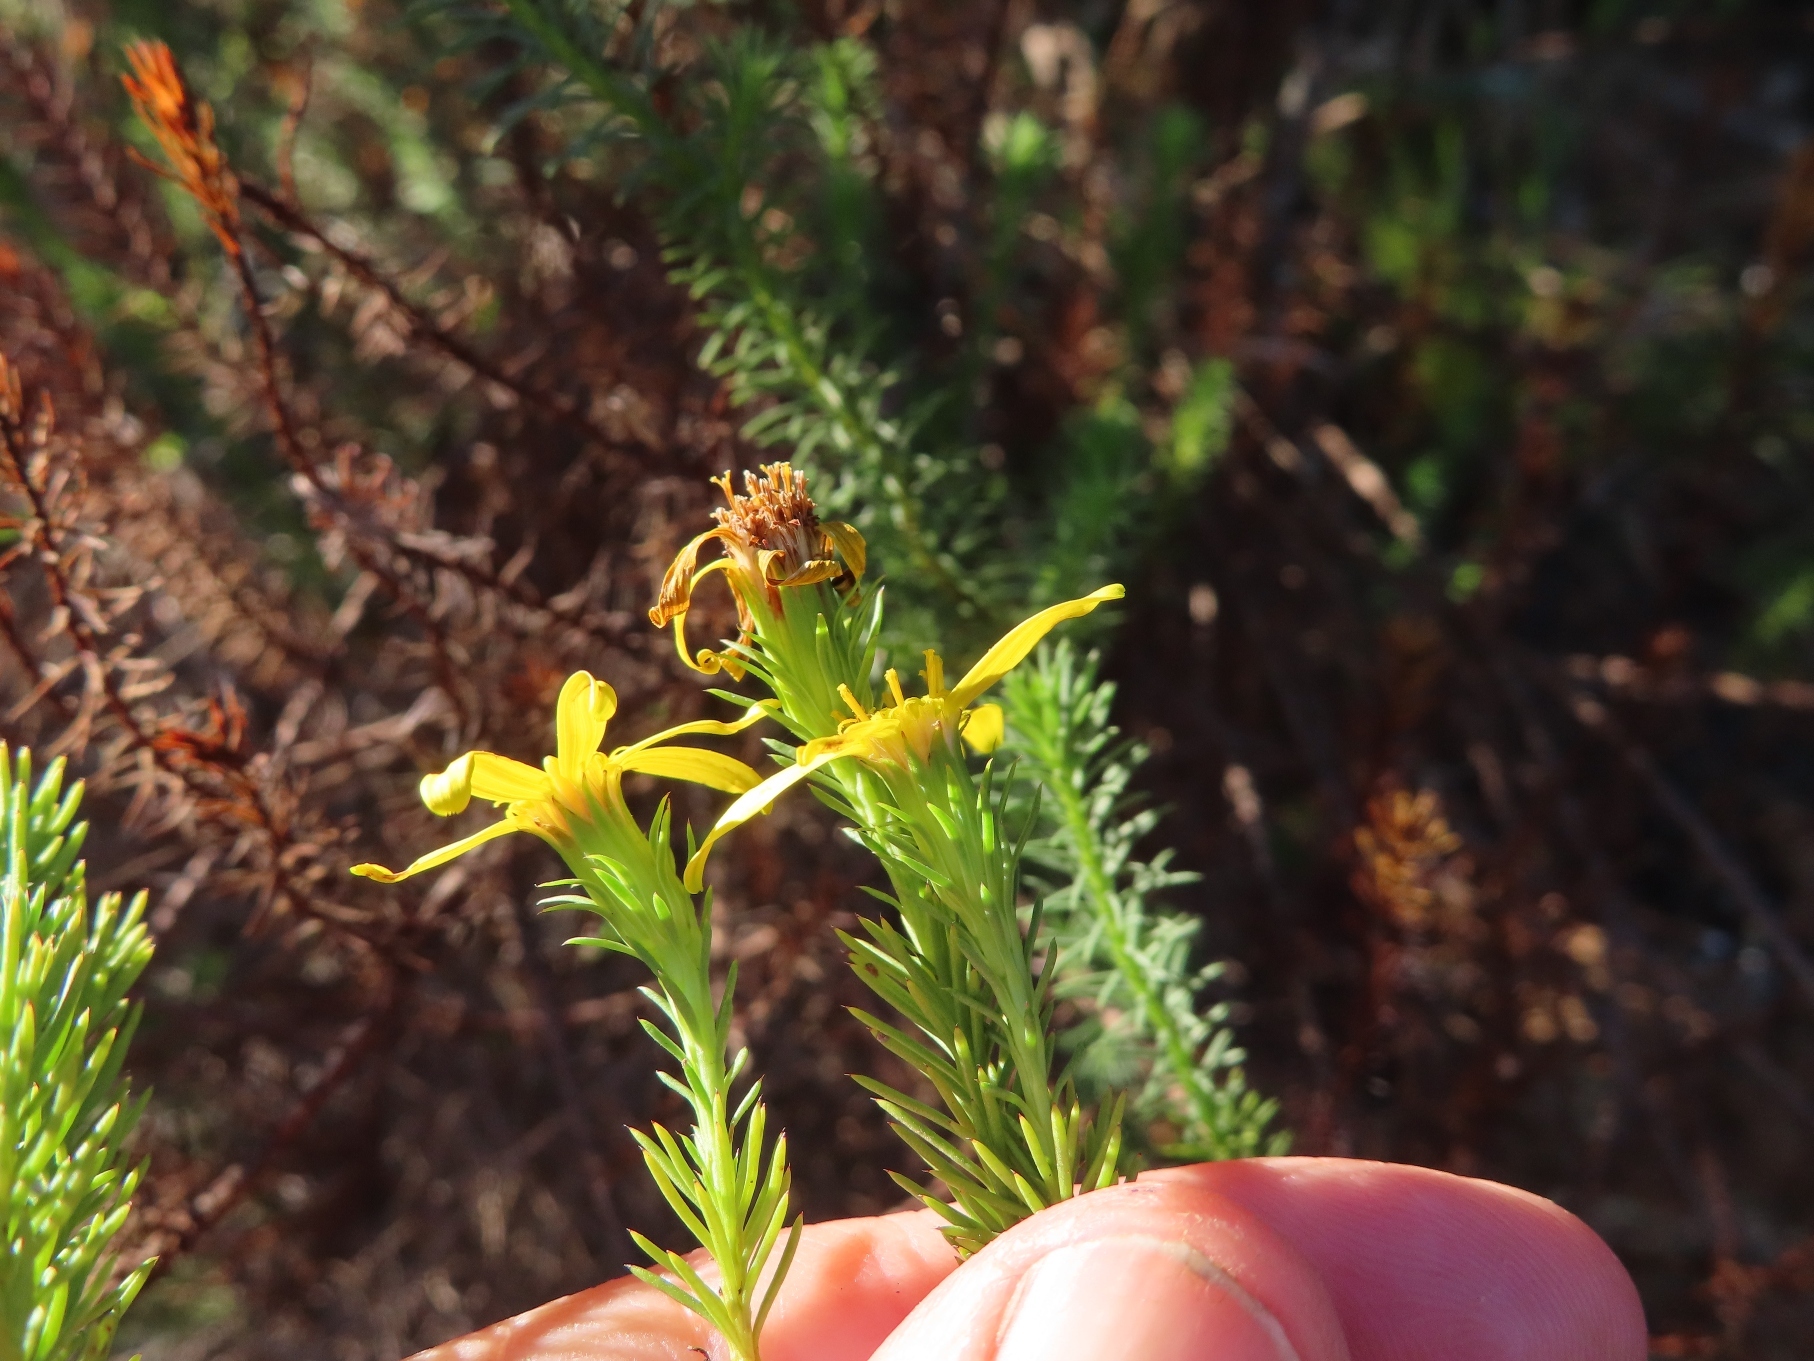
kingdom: Plantae
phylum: Tracheophyta
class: Magnoliopsida
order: Asterales
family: Asteraceae
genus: Senecio
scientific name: Senecio pinifolius
